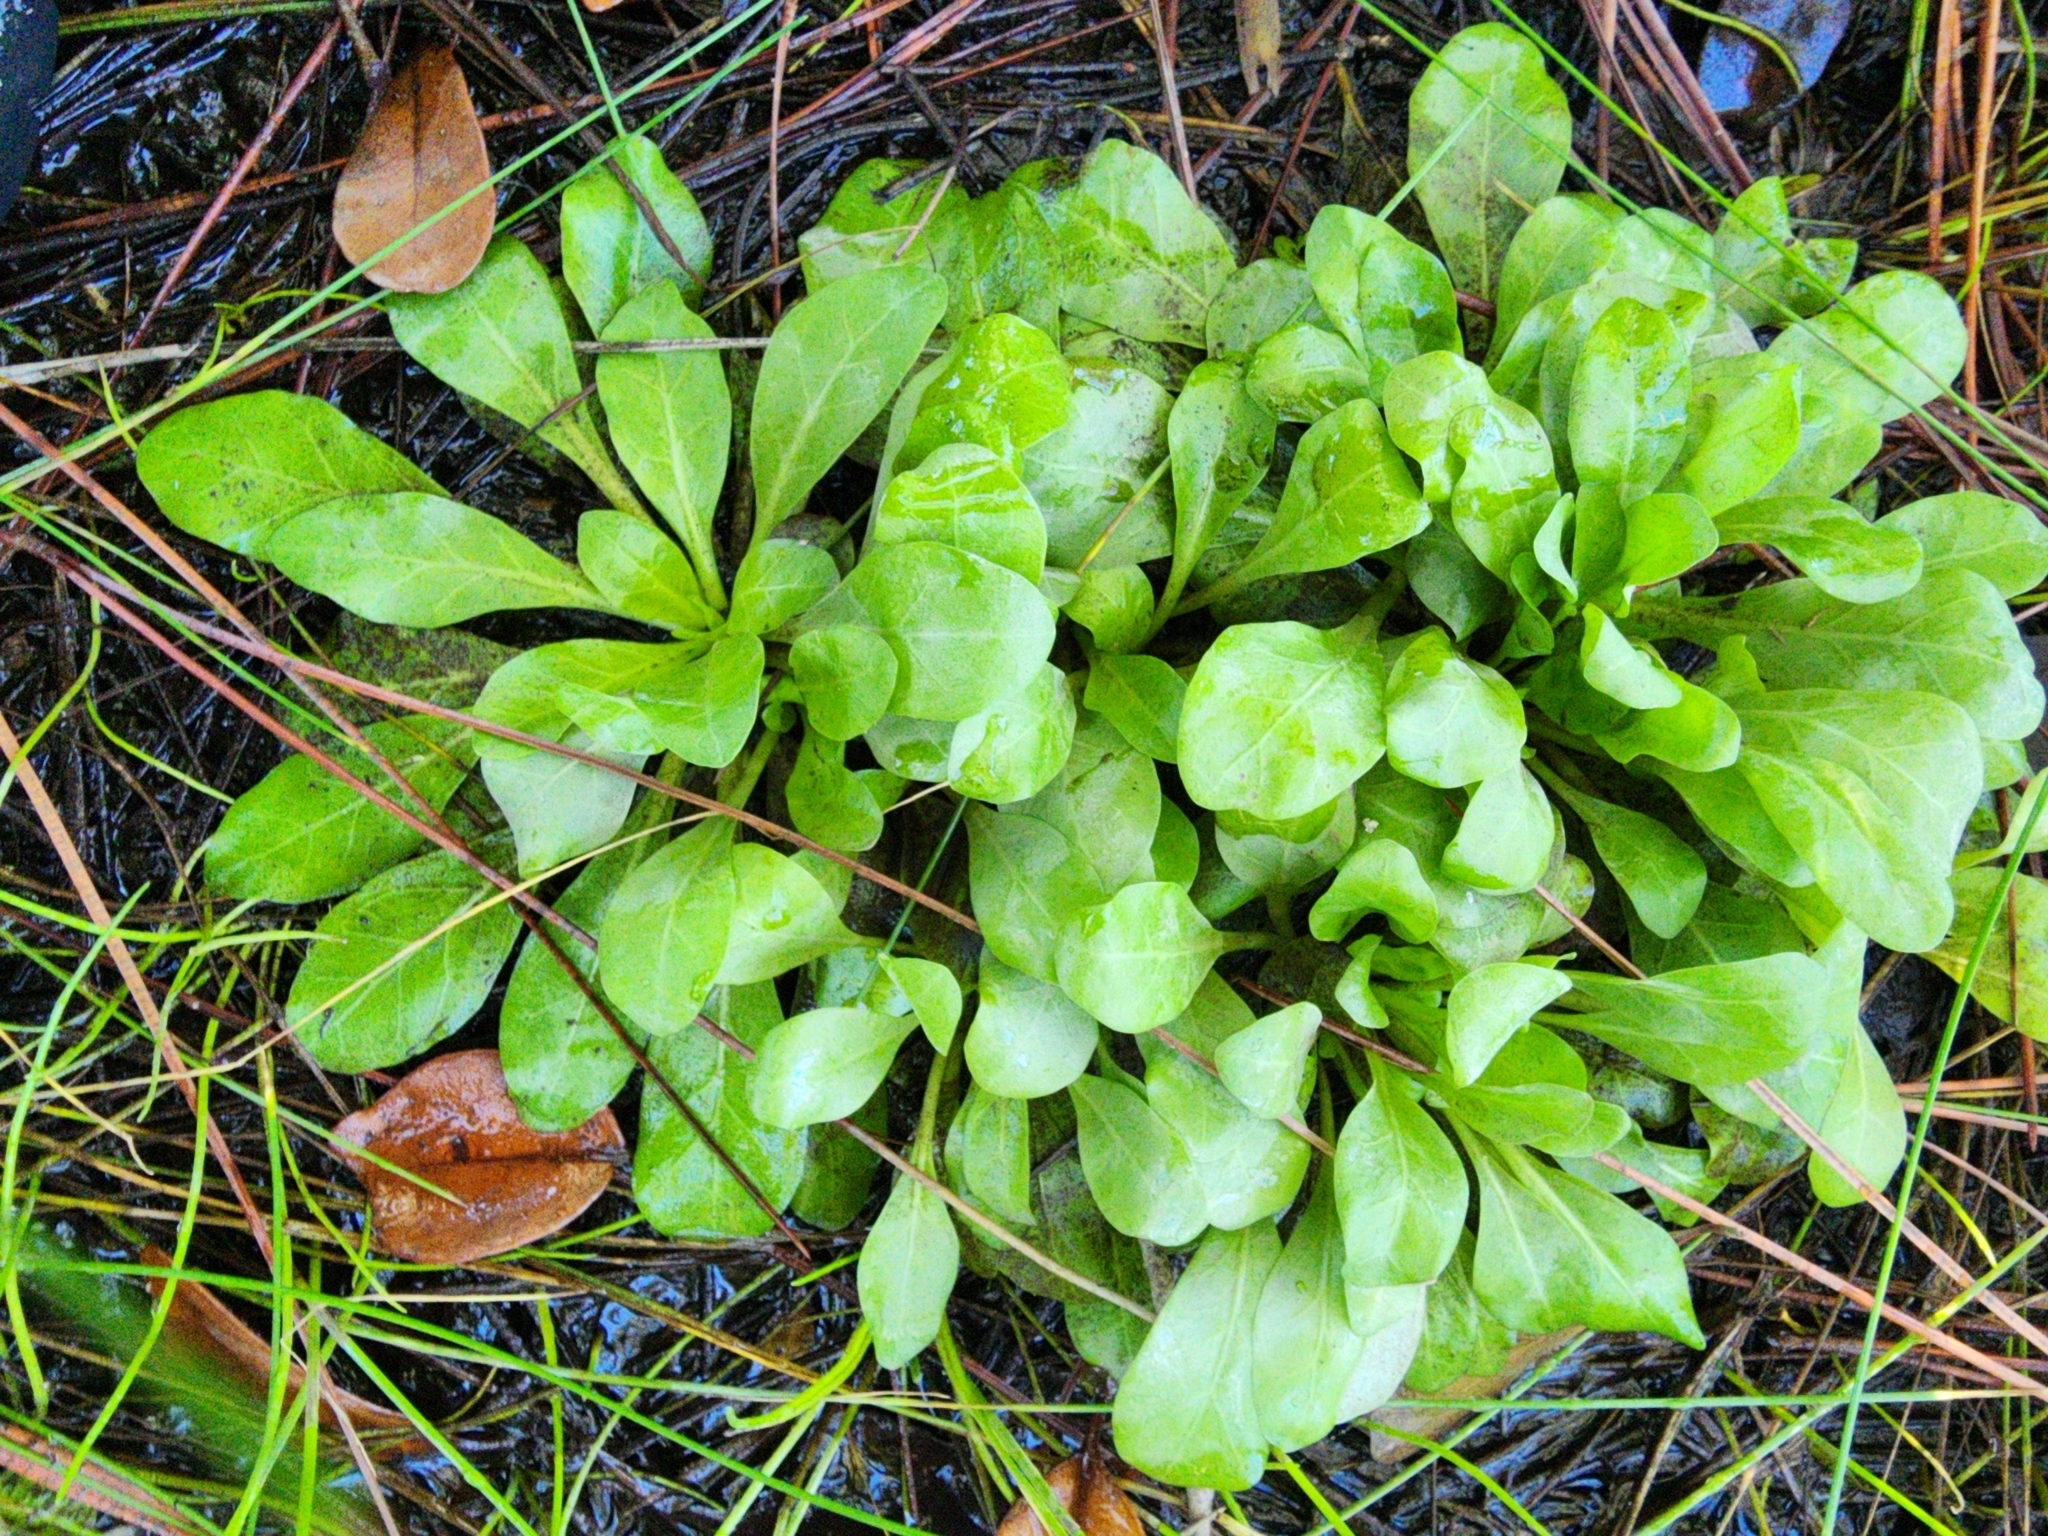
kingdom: Plantae
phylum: Tracheophyta
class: Magnoliopsida
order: Ericales
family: Primulaceae
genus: Samolus
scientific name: Samolus parviflorus
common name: False water pimpernel
